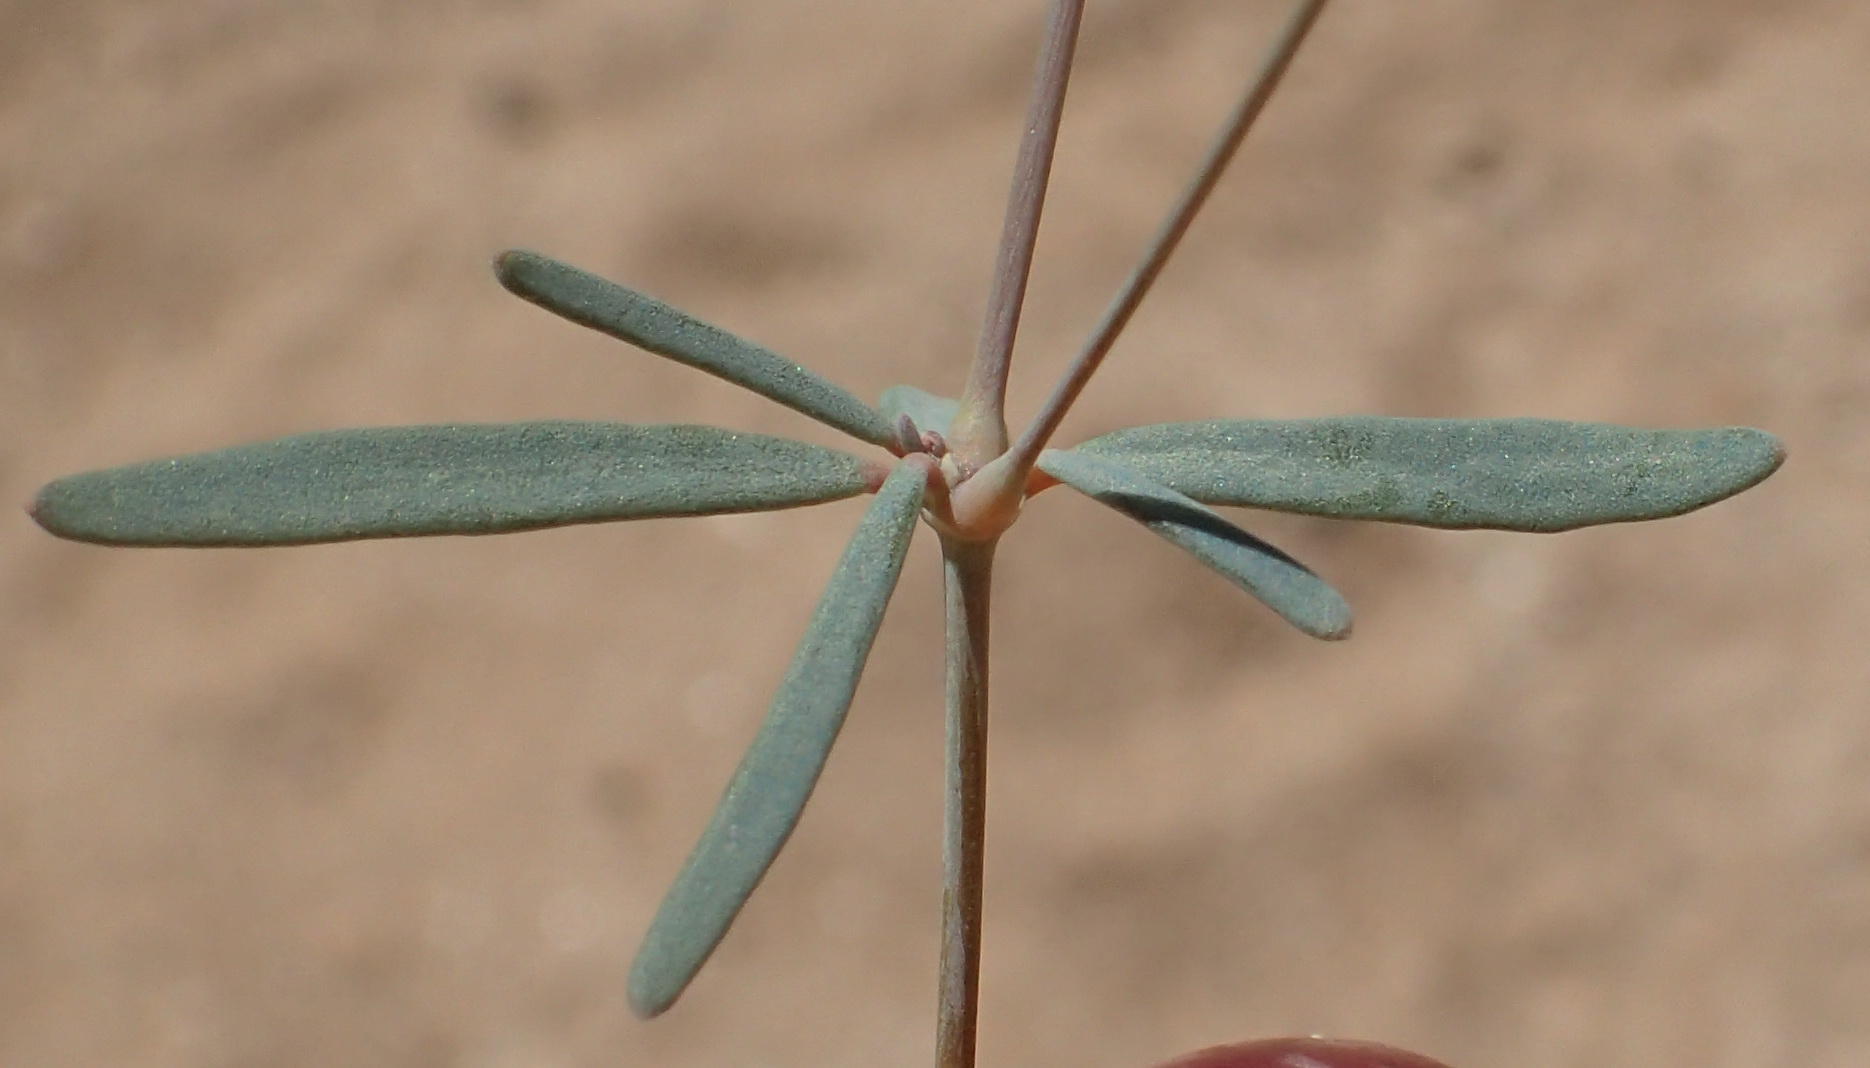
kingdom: Plantae
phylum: Tracheophyta
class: Magnoliopsida
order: Caryophyllales
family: Molluginaceae
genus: Hypertelis
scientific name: Hypertelis spergulacea
